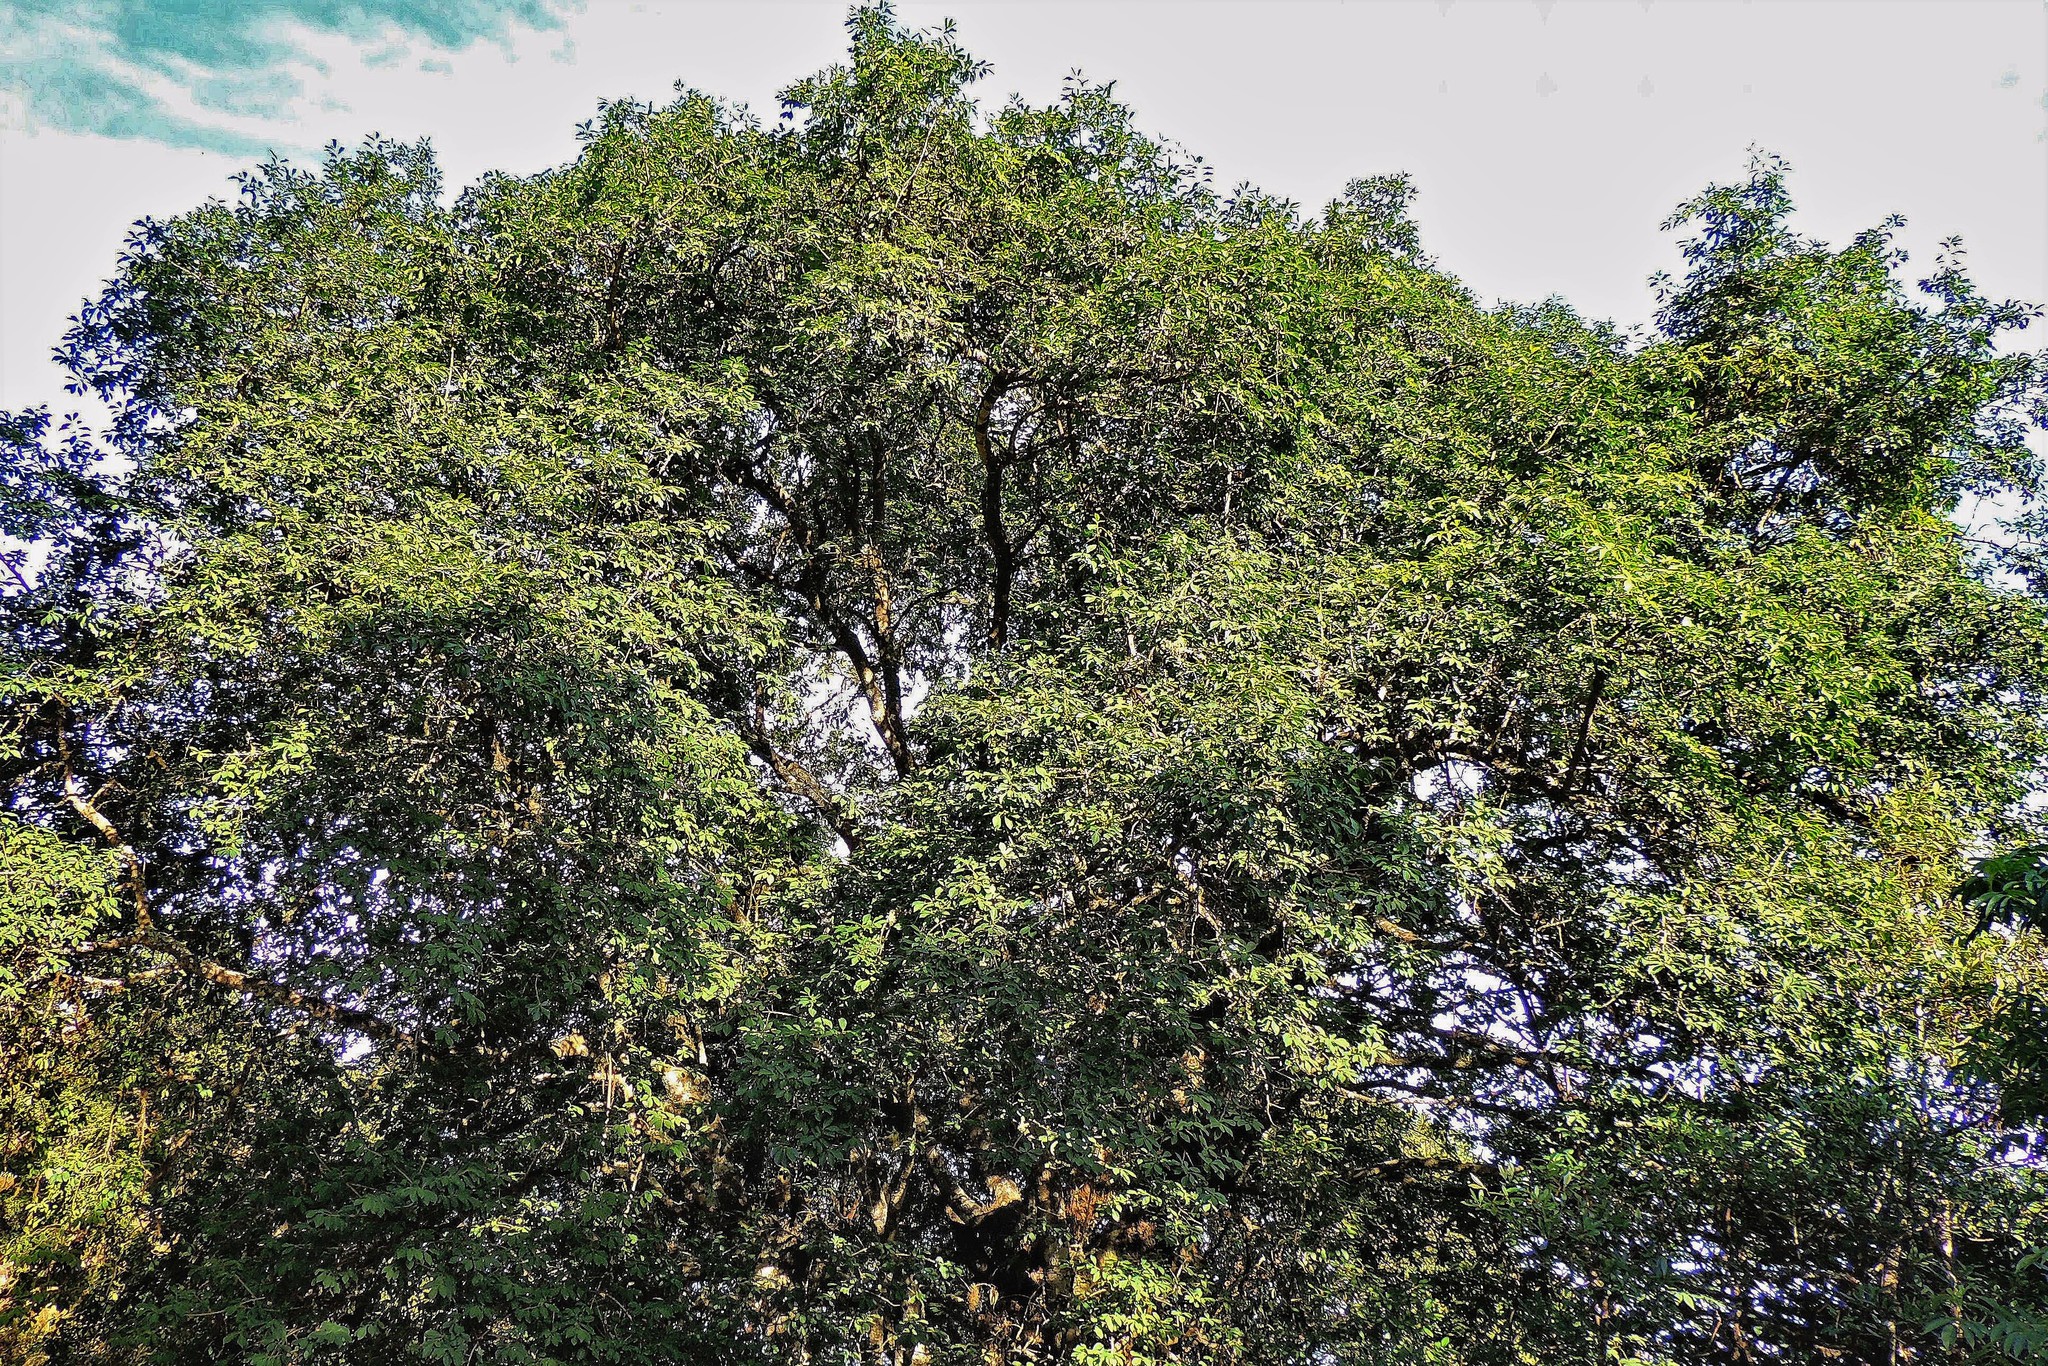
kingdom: Plantae
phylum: Tracheophyta
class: Magnoliopsida
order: Aquifoliales
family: Aquifoliaceae
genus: Ilex
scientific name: Ilex argentina
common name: Argentina holly
